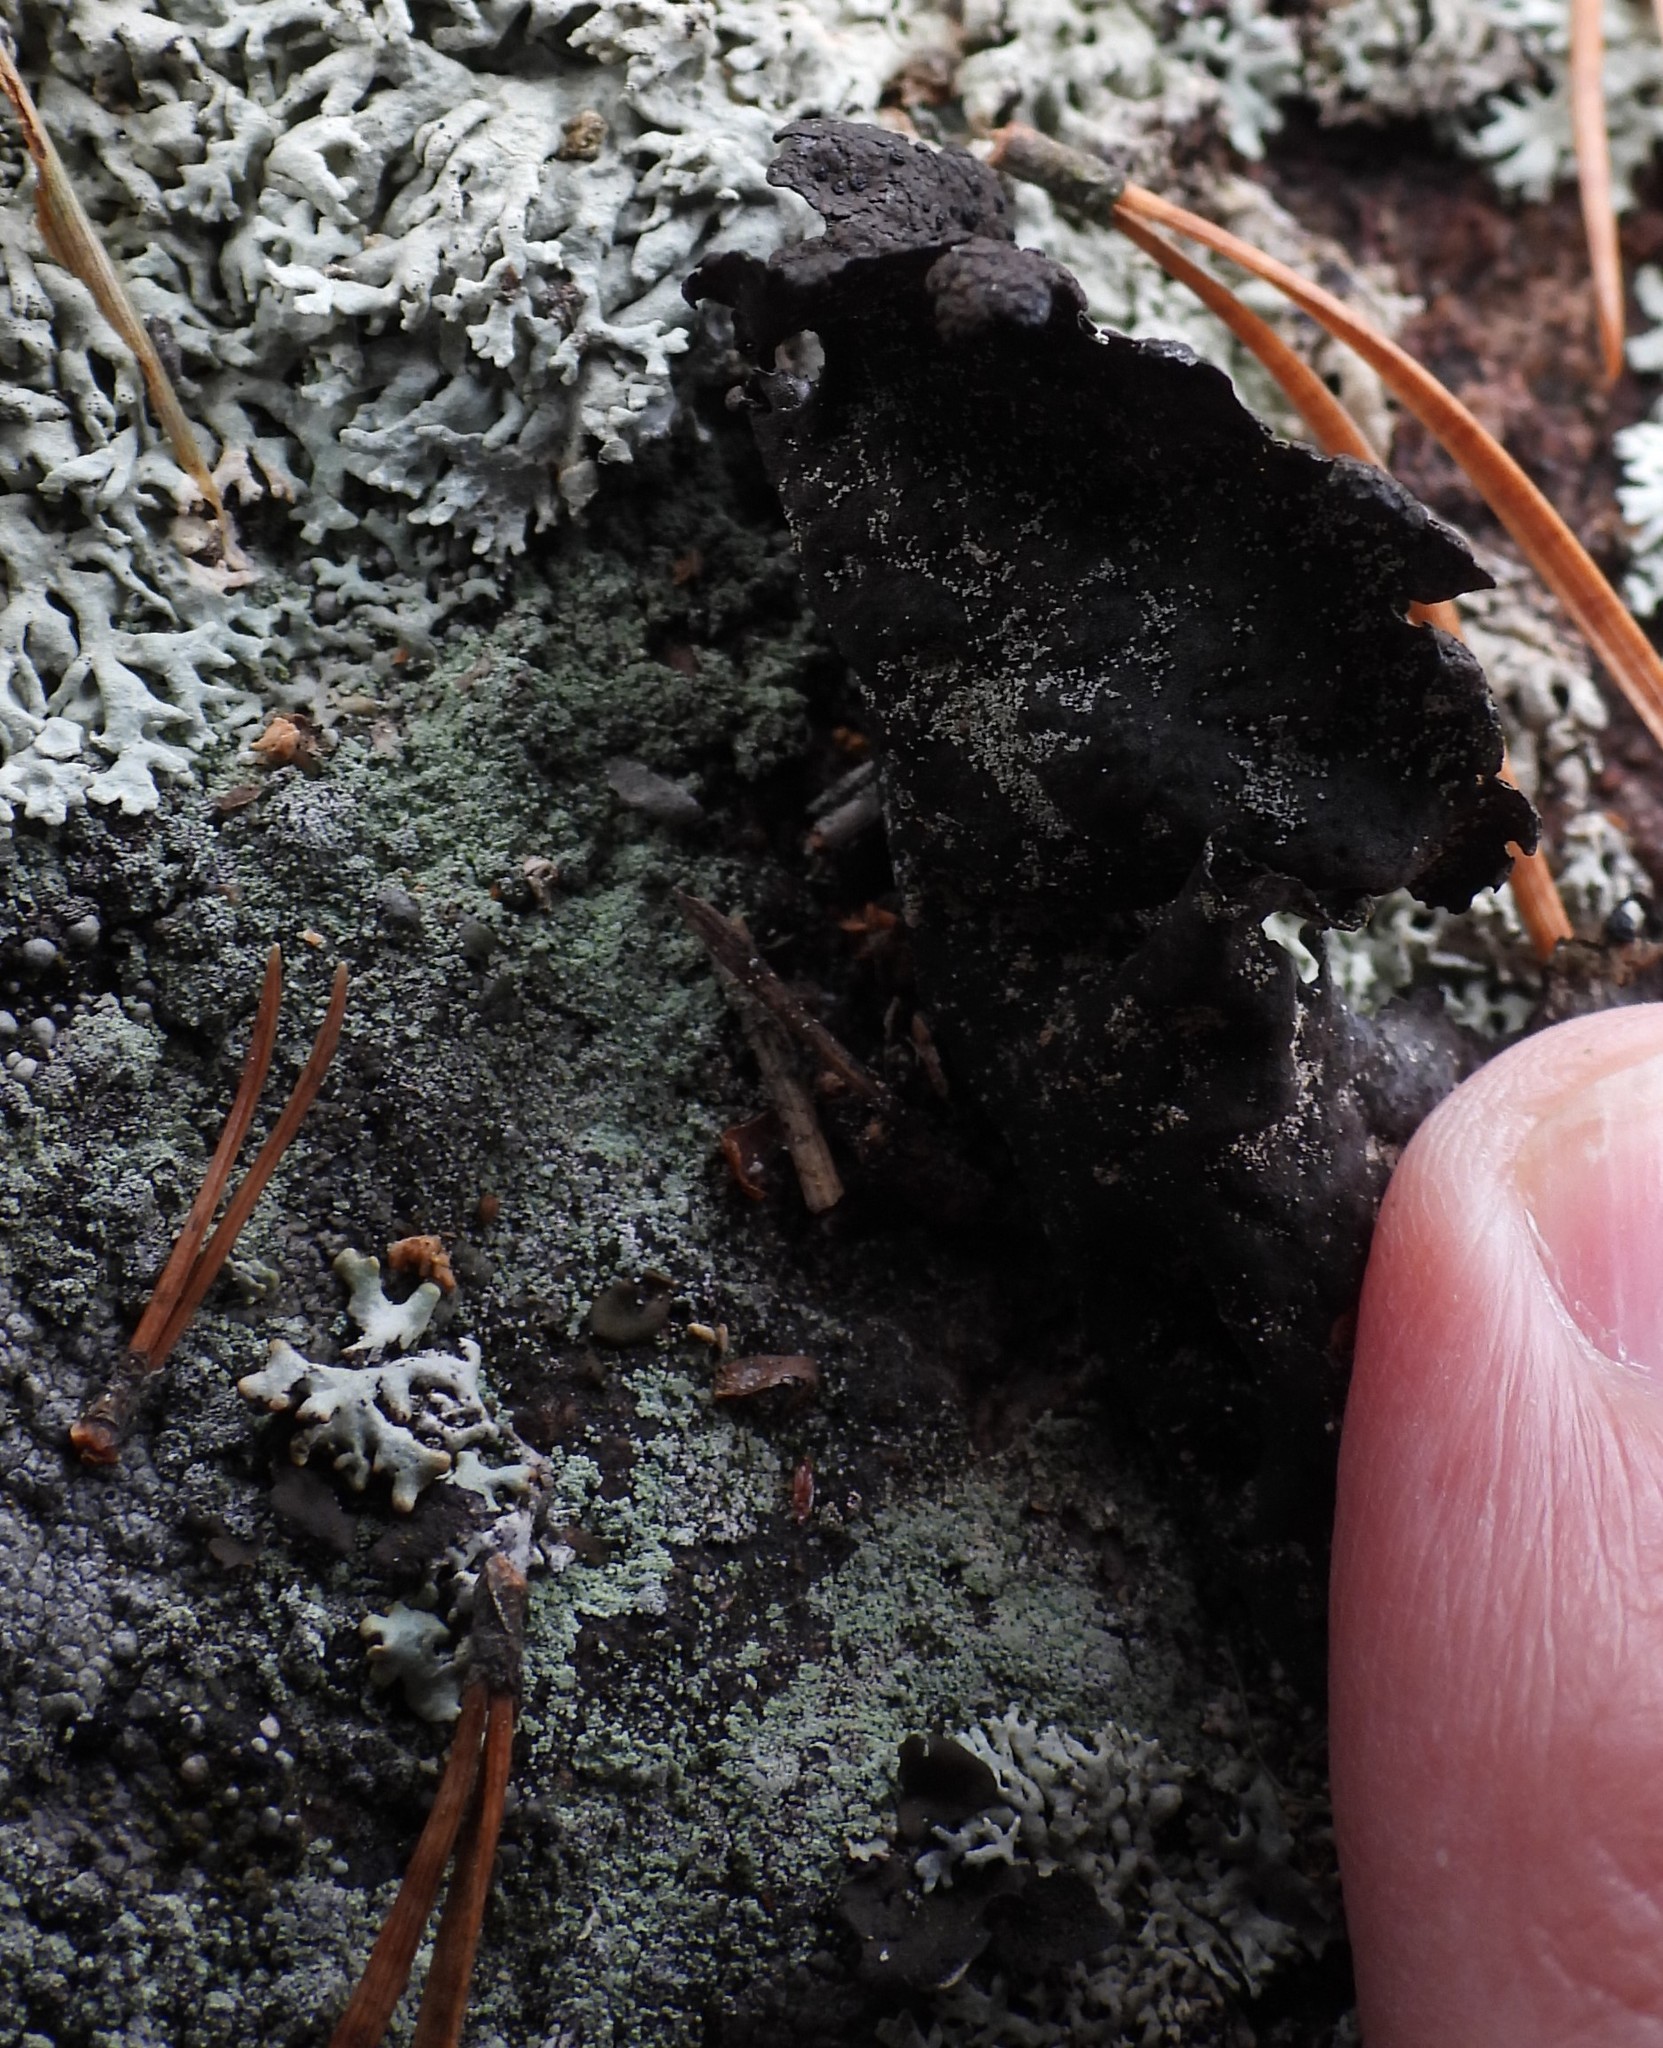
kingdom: Fungi
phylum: Ascomycota
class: Lecanoromycetes
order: Umbilicariales
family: Umbilicariaceae
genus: Umbilicaria
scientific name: Umbilicaria hyperborea
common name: Blistered rock tripe
